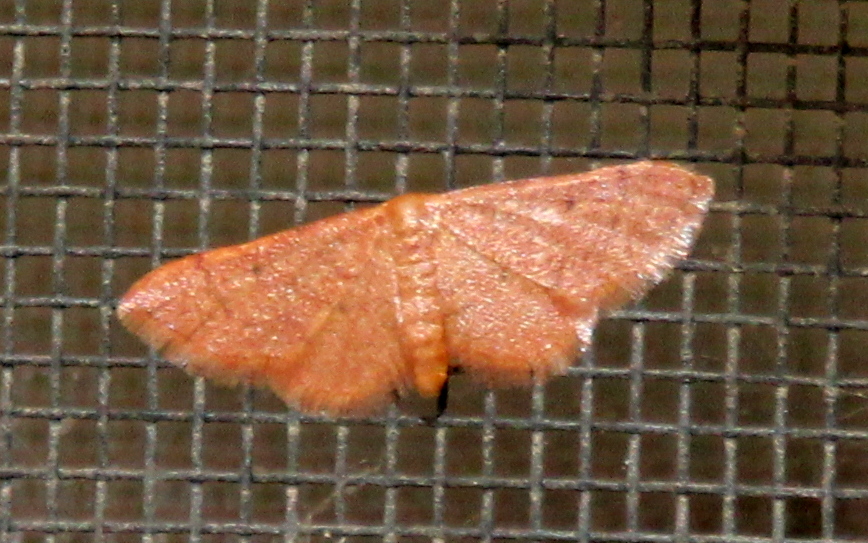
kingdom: Animalia
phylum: Arthropoda
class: Insecta
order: Lepidoptera
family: Geometridae
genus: Idaea
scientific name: Idaea demissaria
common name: Red-bordered wave
